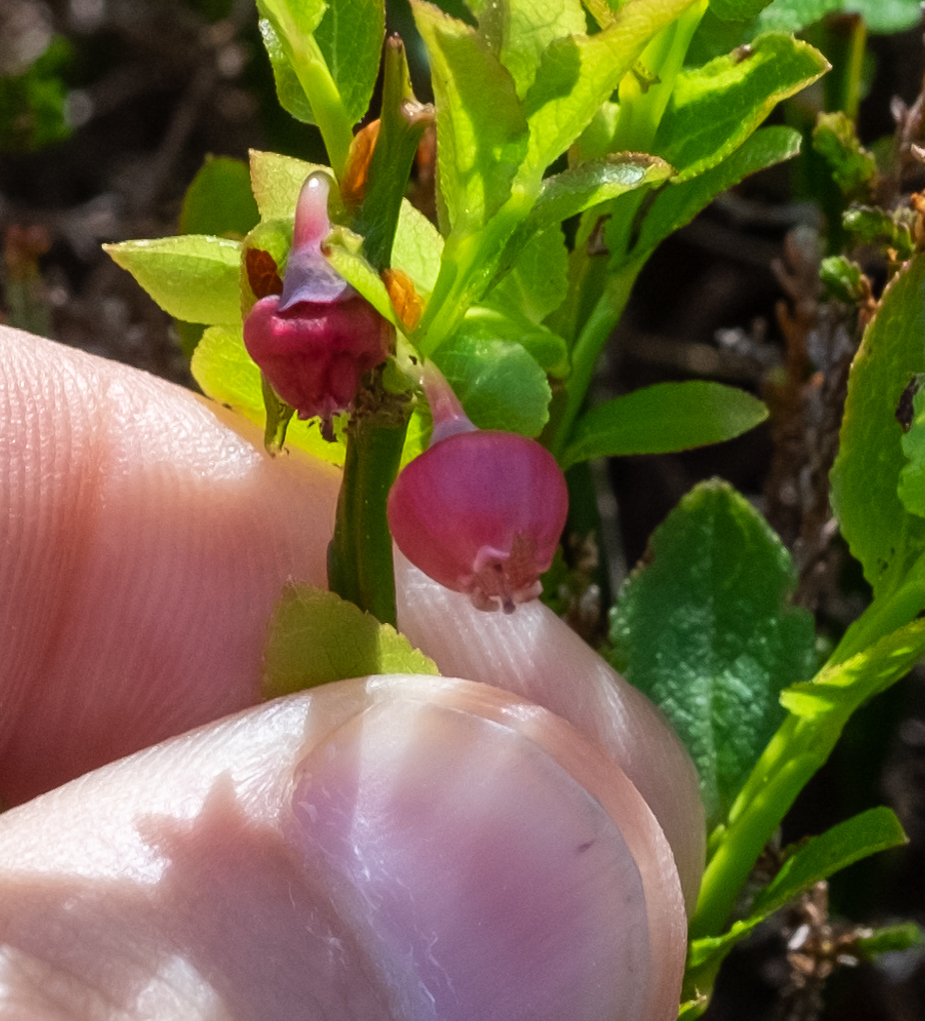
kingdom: Plantae
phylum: Tracheophyta
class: Magnoliopsida
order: Ericales
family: Ericaceae
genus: Vaccinium
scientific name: Vaccinium myrtillus
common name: Bilberry
